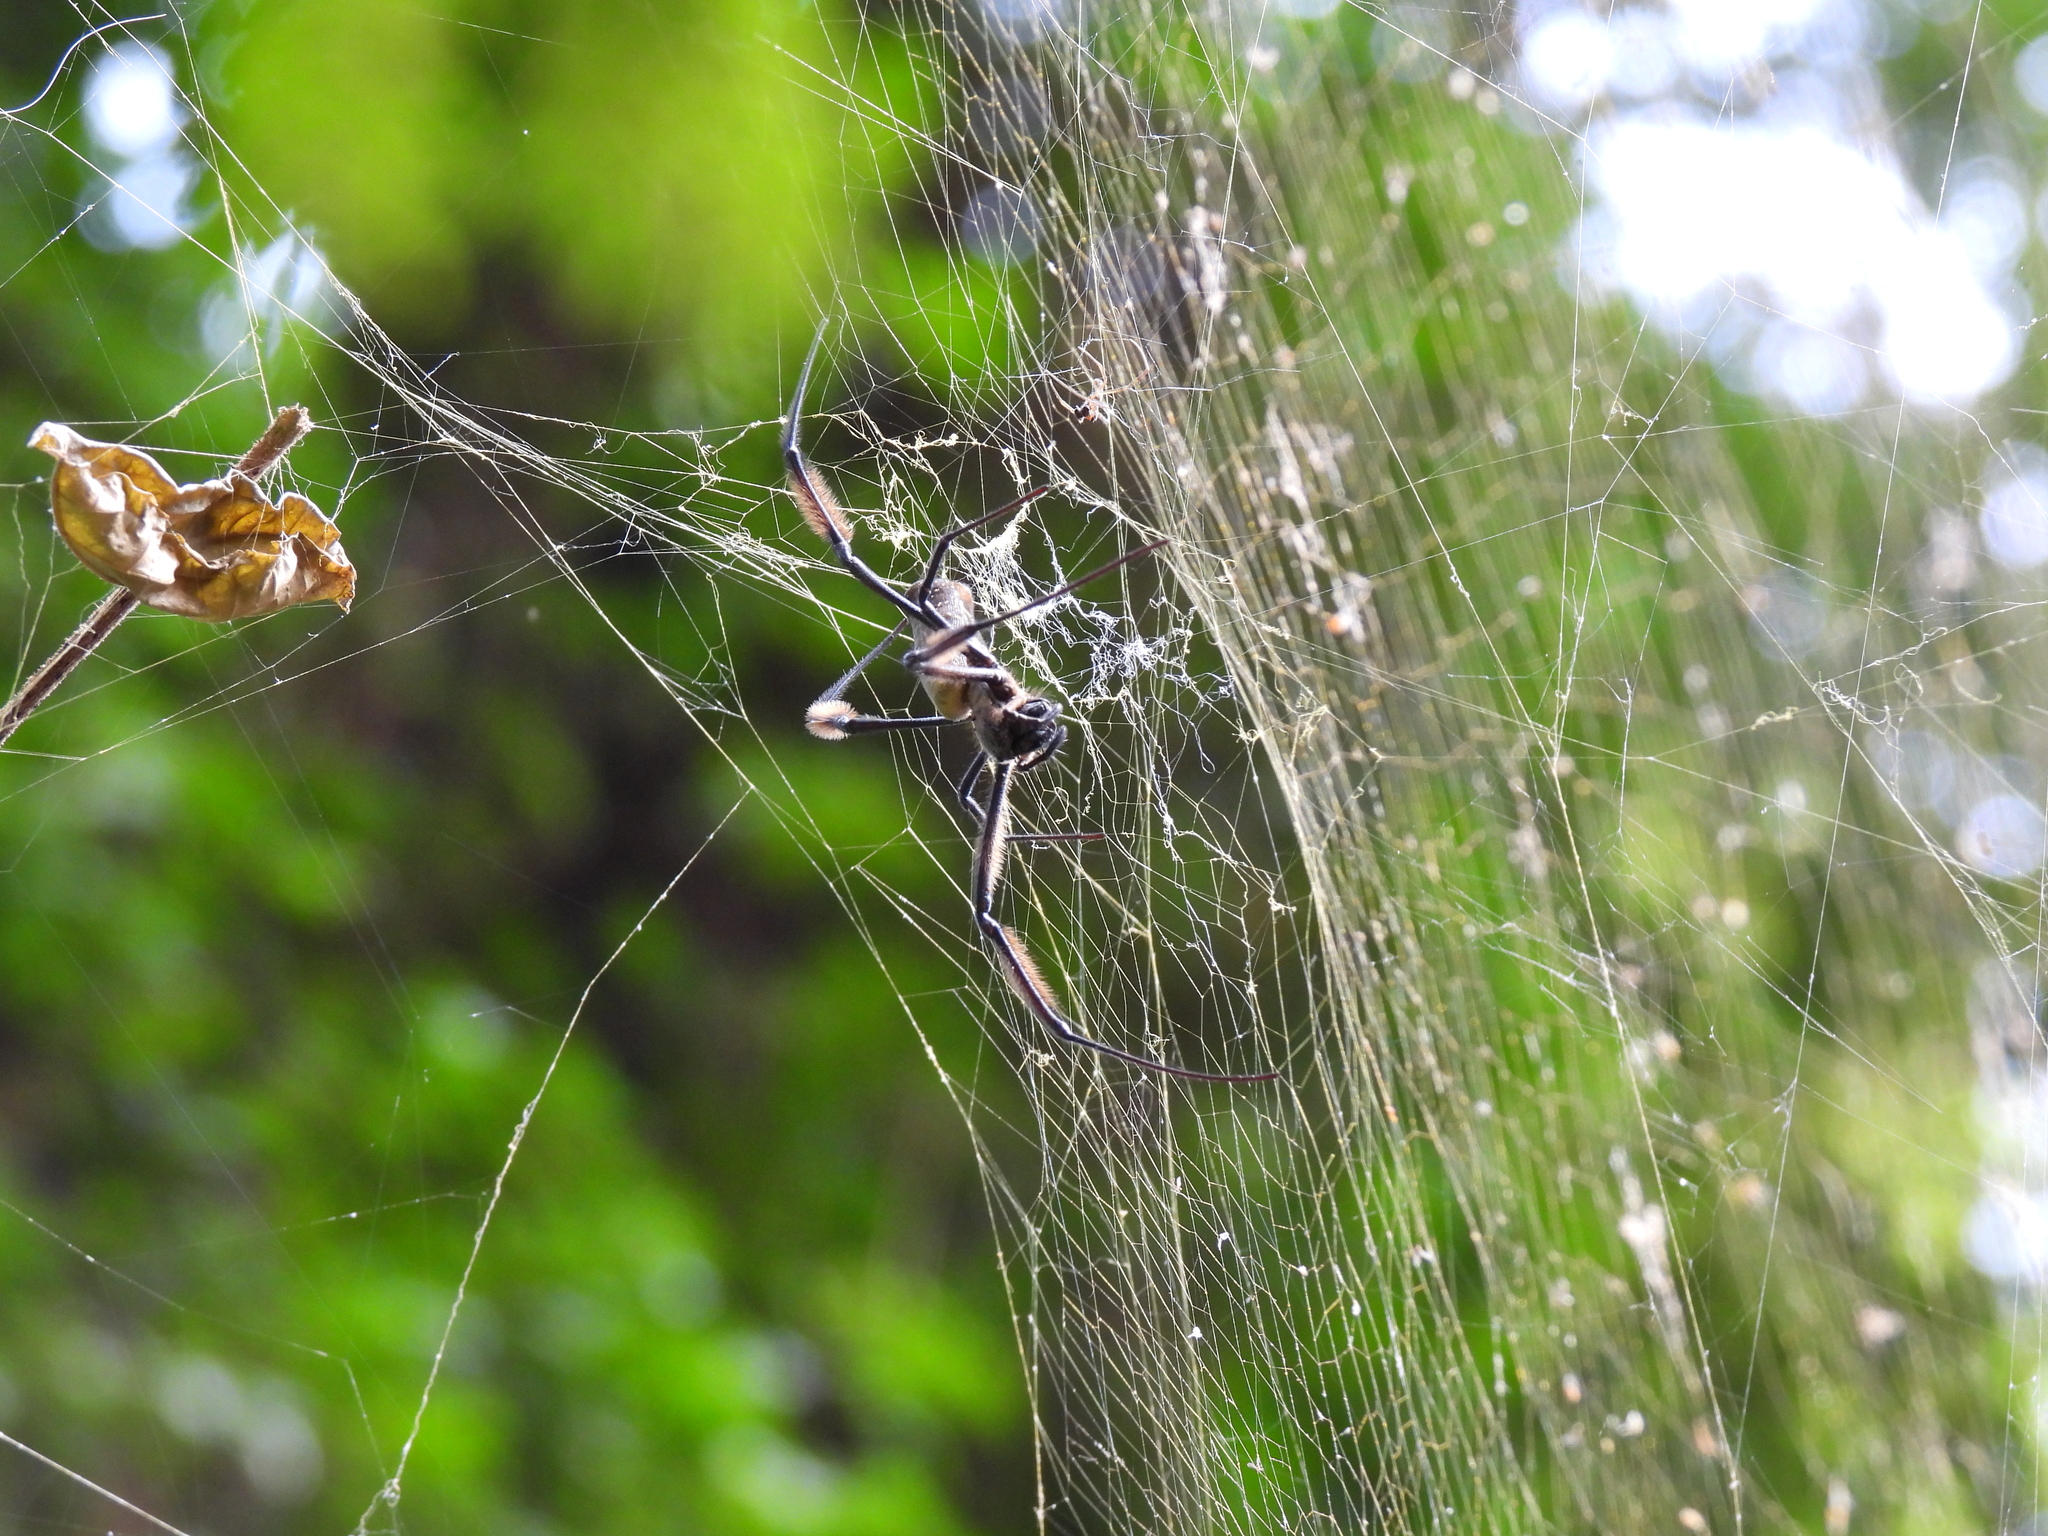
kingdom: Animalia
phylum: Arthropoda
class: Arachnida
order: Araneae
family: Araneidae
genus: Trichonephila
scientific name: Trichonephila fenestrata
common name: Hairy golden orb weaver
